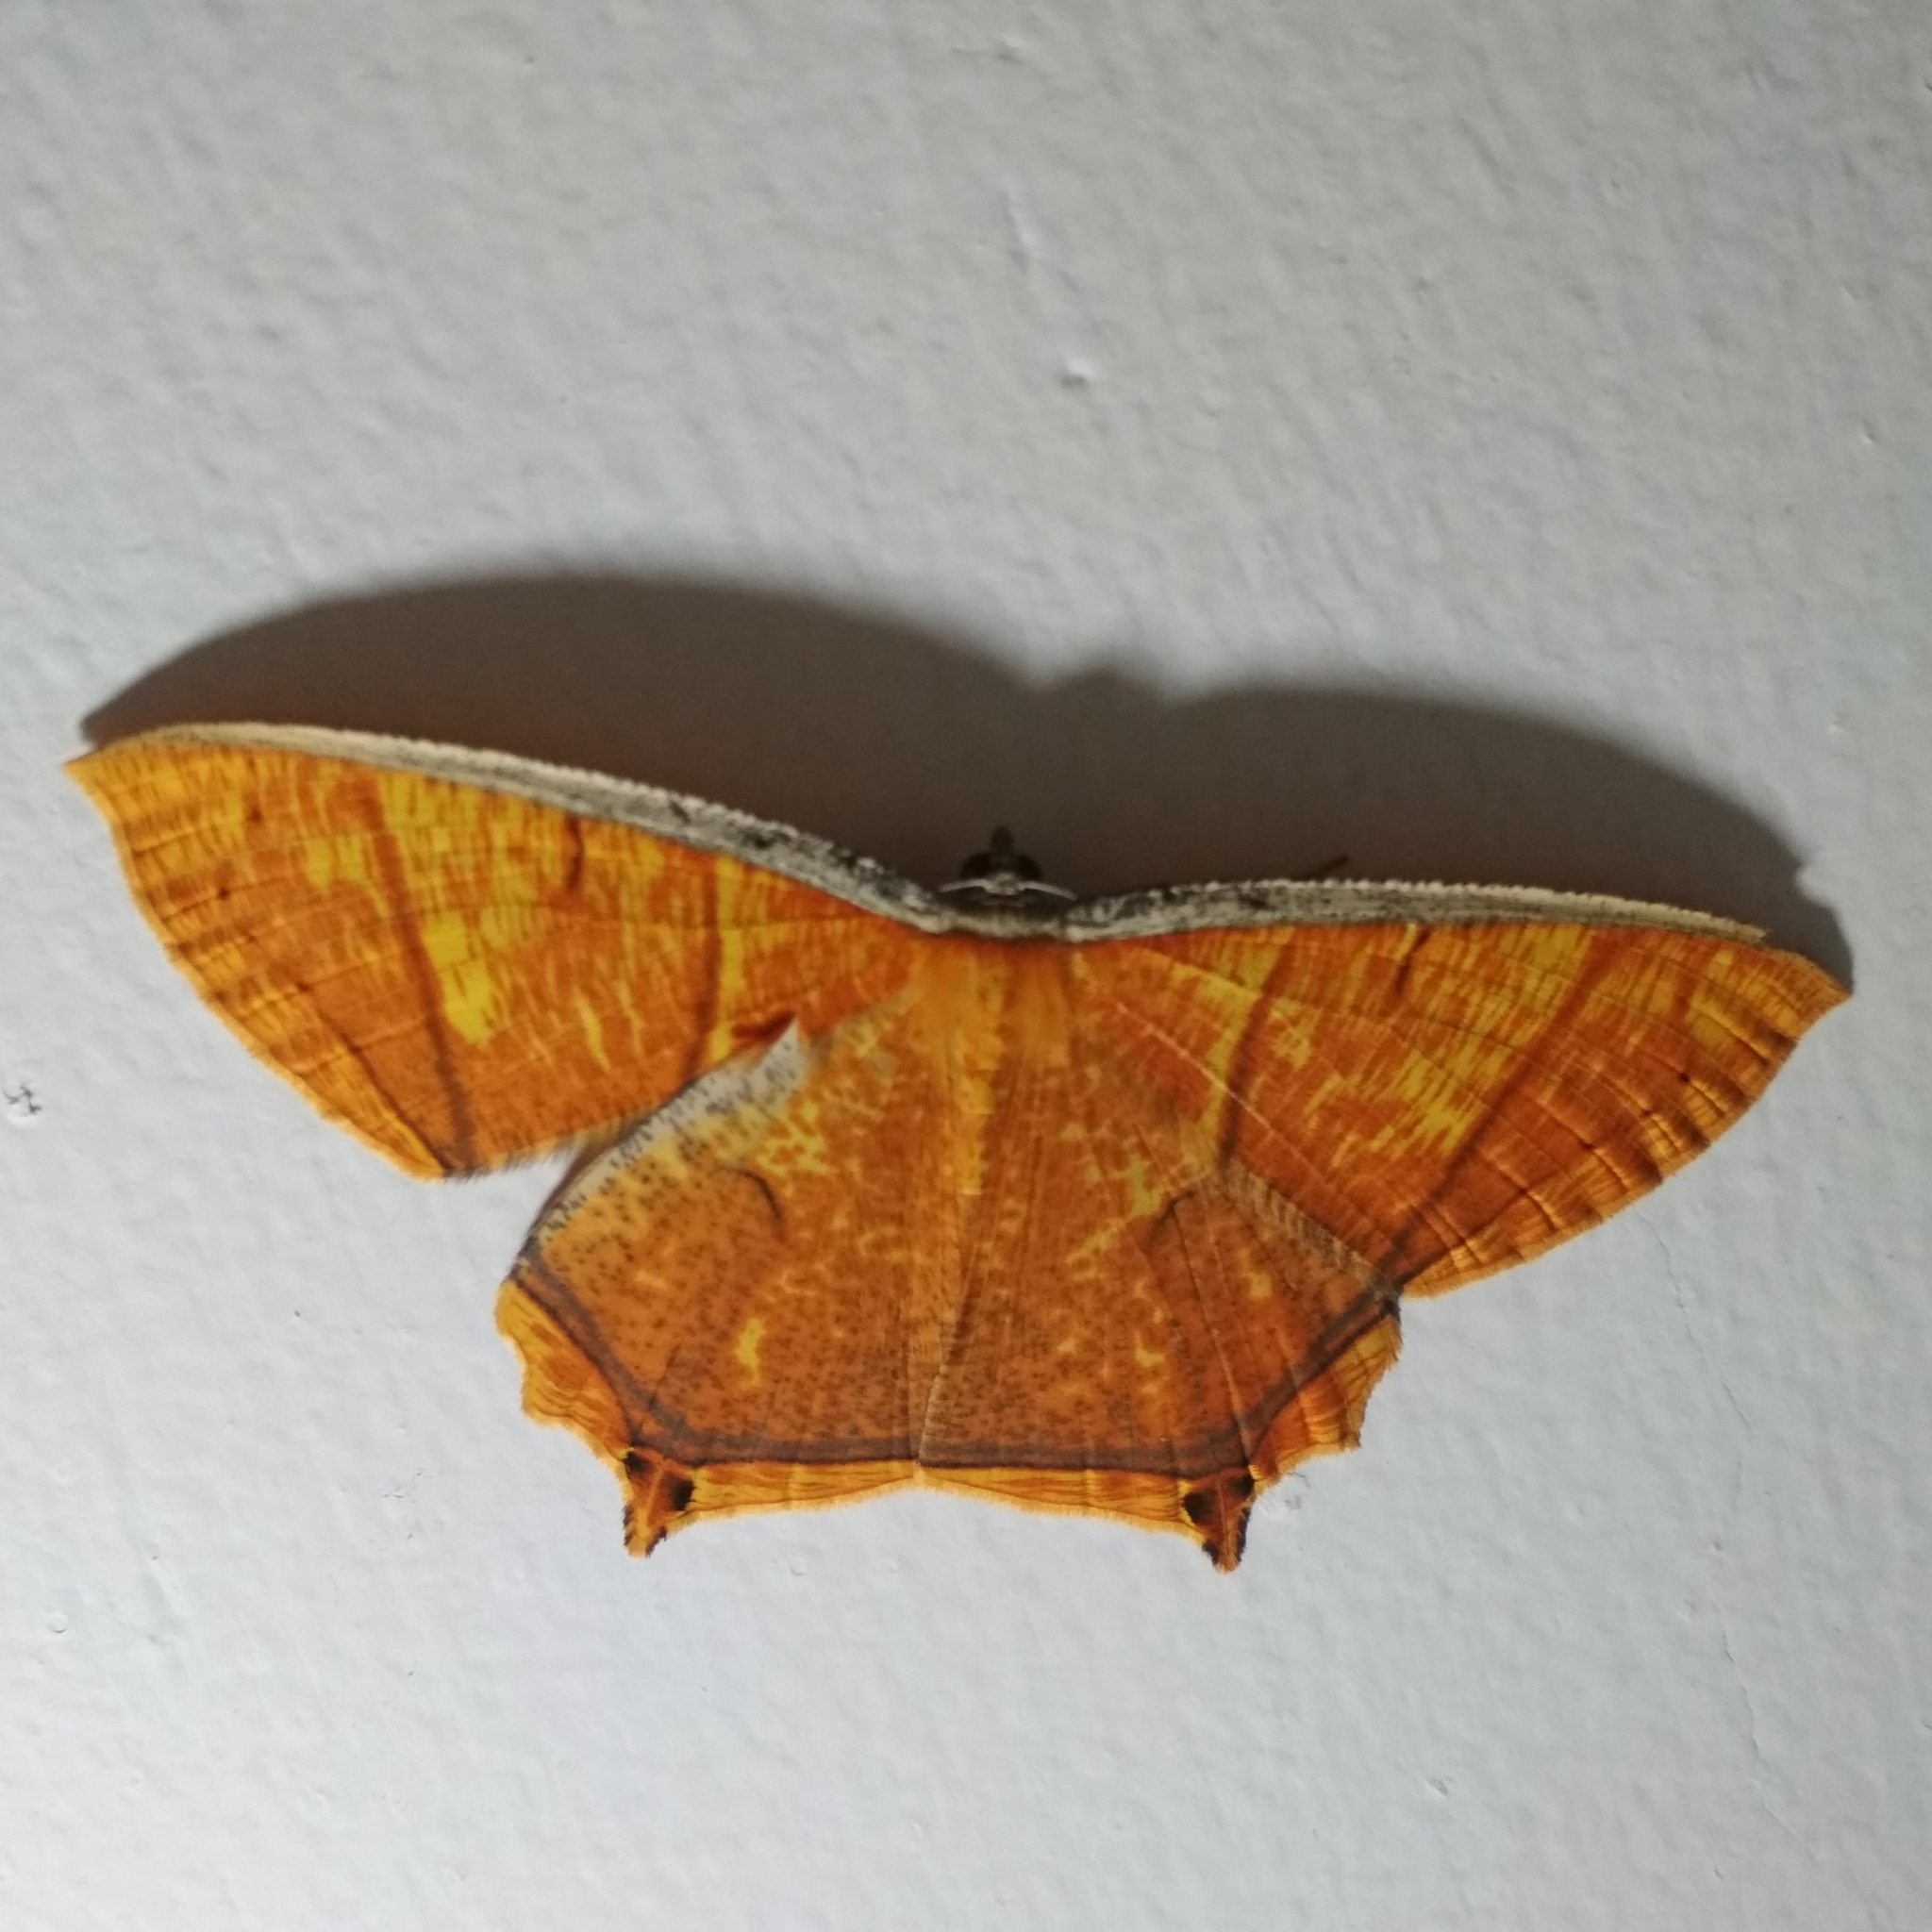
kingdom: Animalia
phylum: Arthropoda
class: Insecta
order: Lepidoptera
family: Geometridae
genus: Thinopteryx
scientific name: Thinopteryx crocoptera
